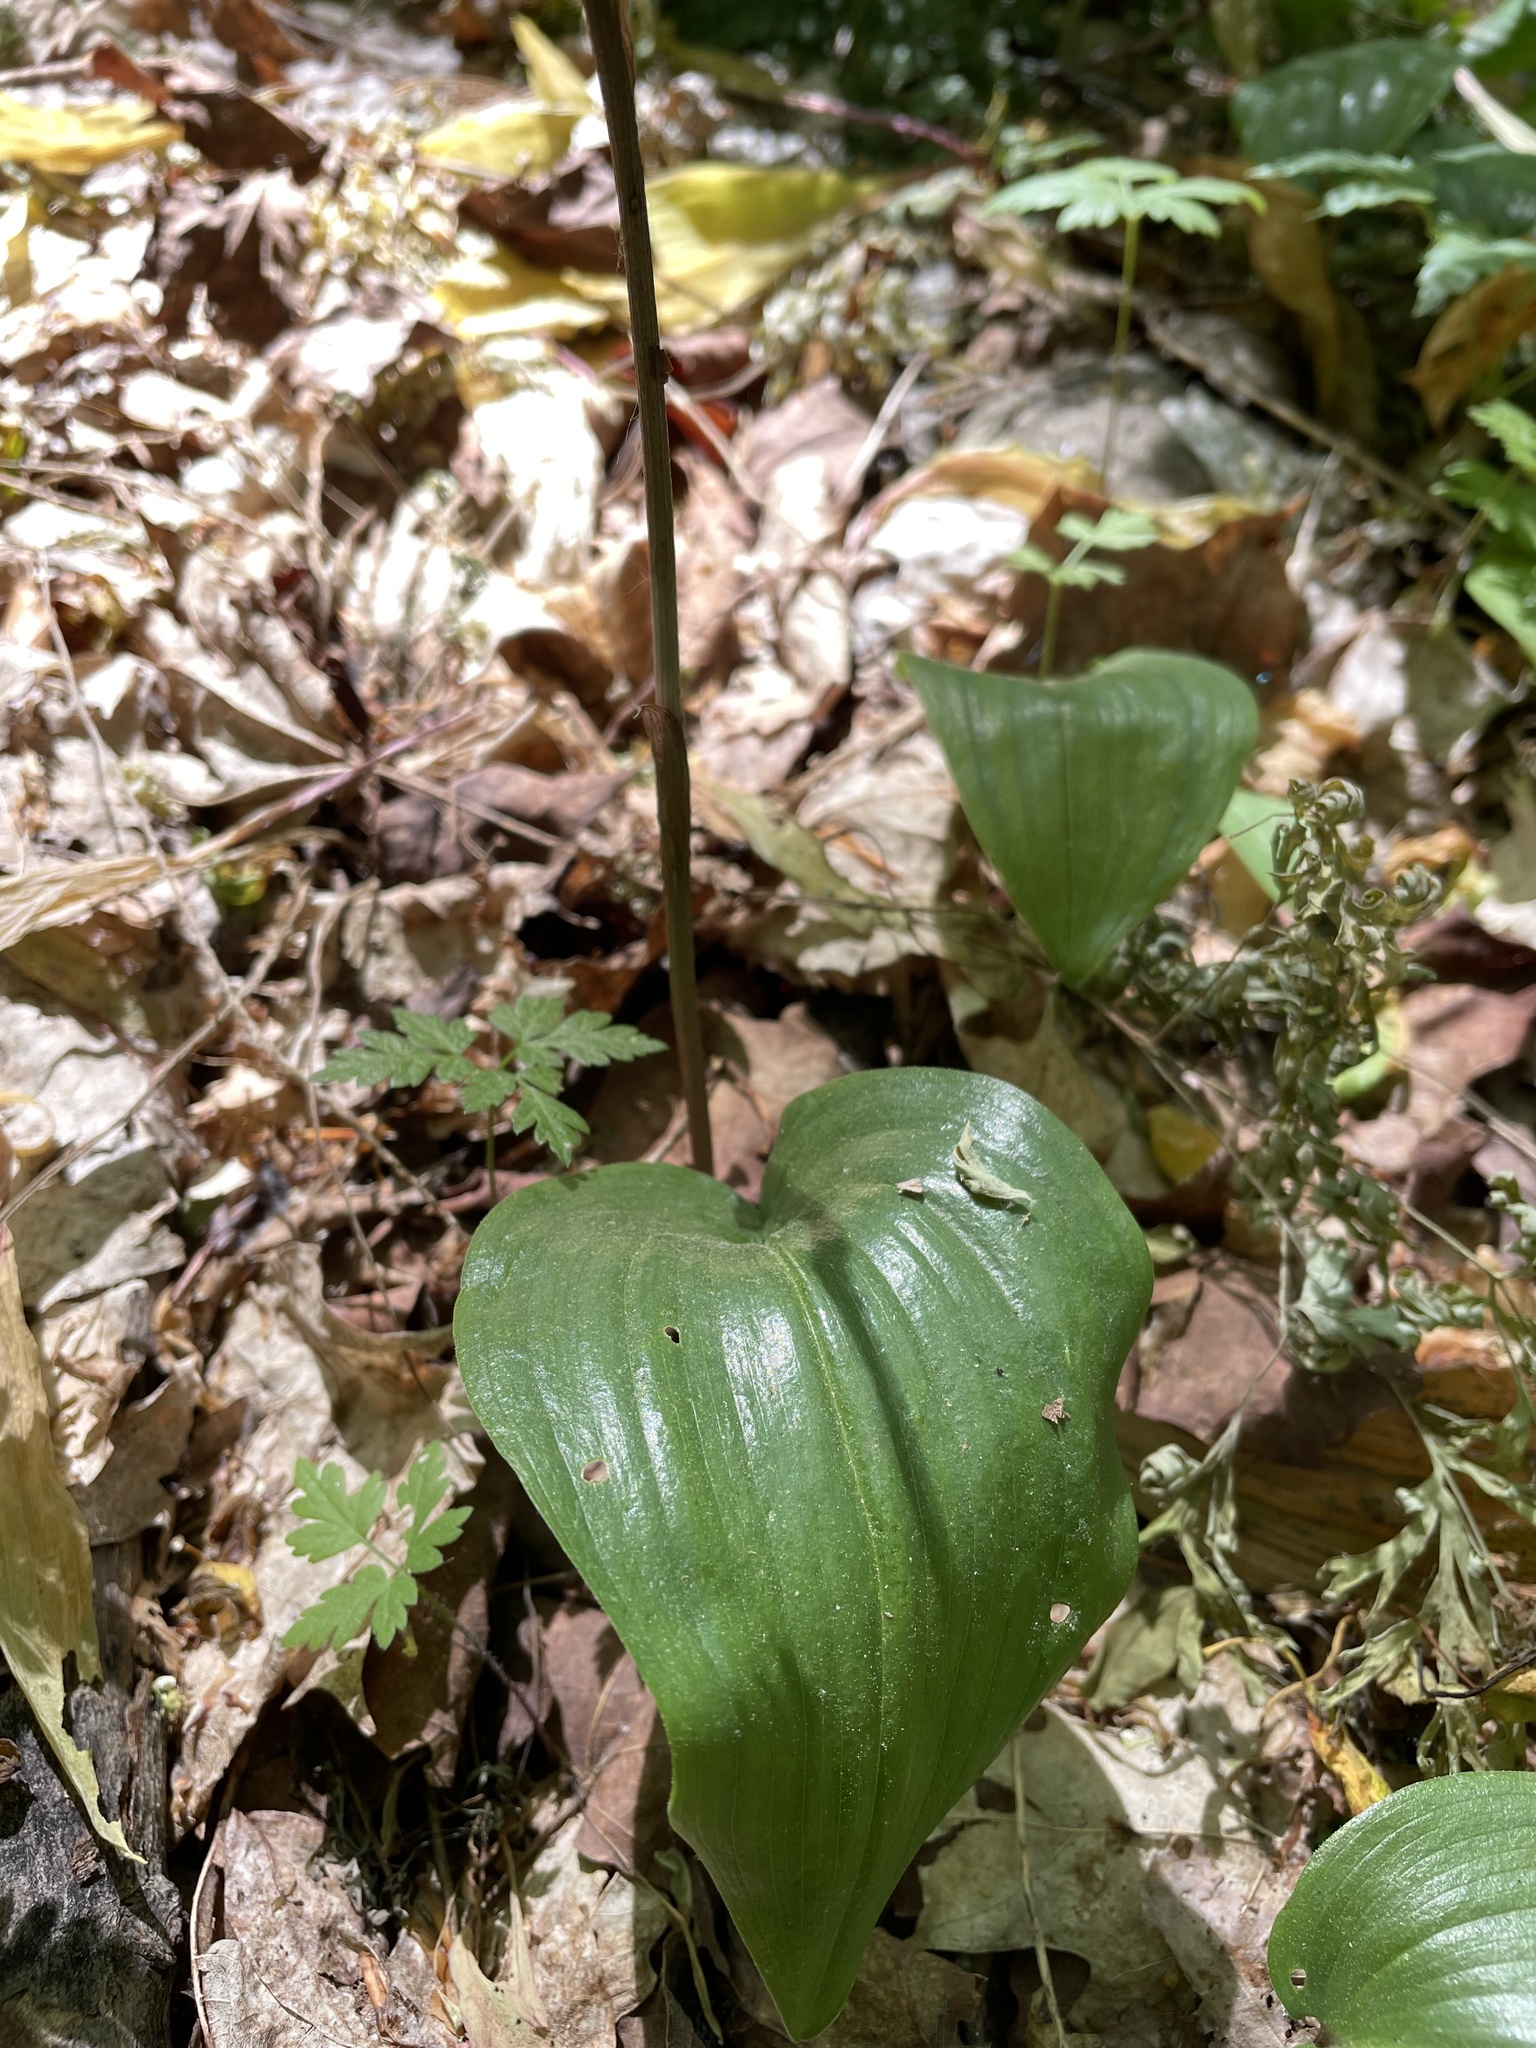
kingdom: Plantae
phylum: Tracheophyta
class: Liliopsida
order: Asparagales
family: Orchidaceae
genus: Aplectrum
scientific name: Aplectrum hyemale
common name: Adam-and-eve
